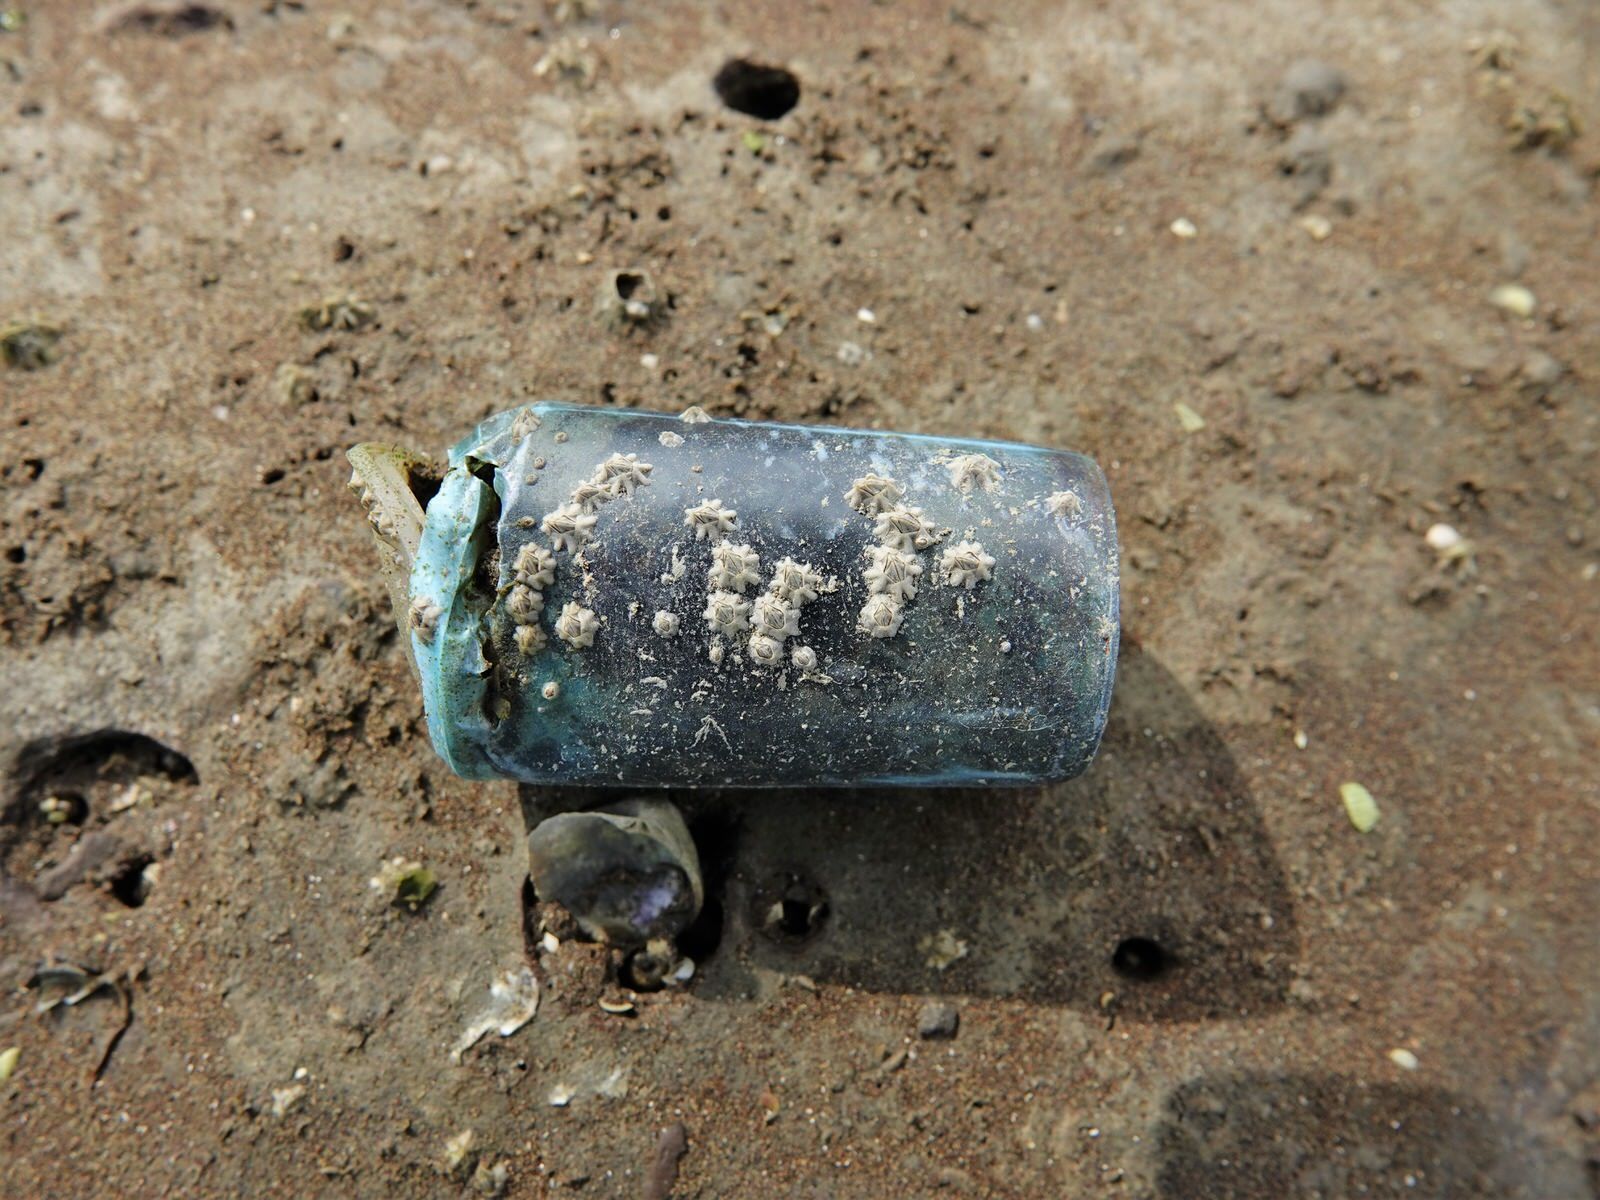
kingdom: Animalia
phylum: Arthropoda
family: Elminiidae
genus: Austrominius
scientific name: Austrominius modestus
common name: Australasian barnacle
